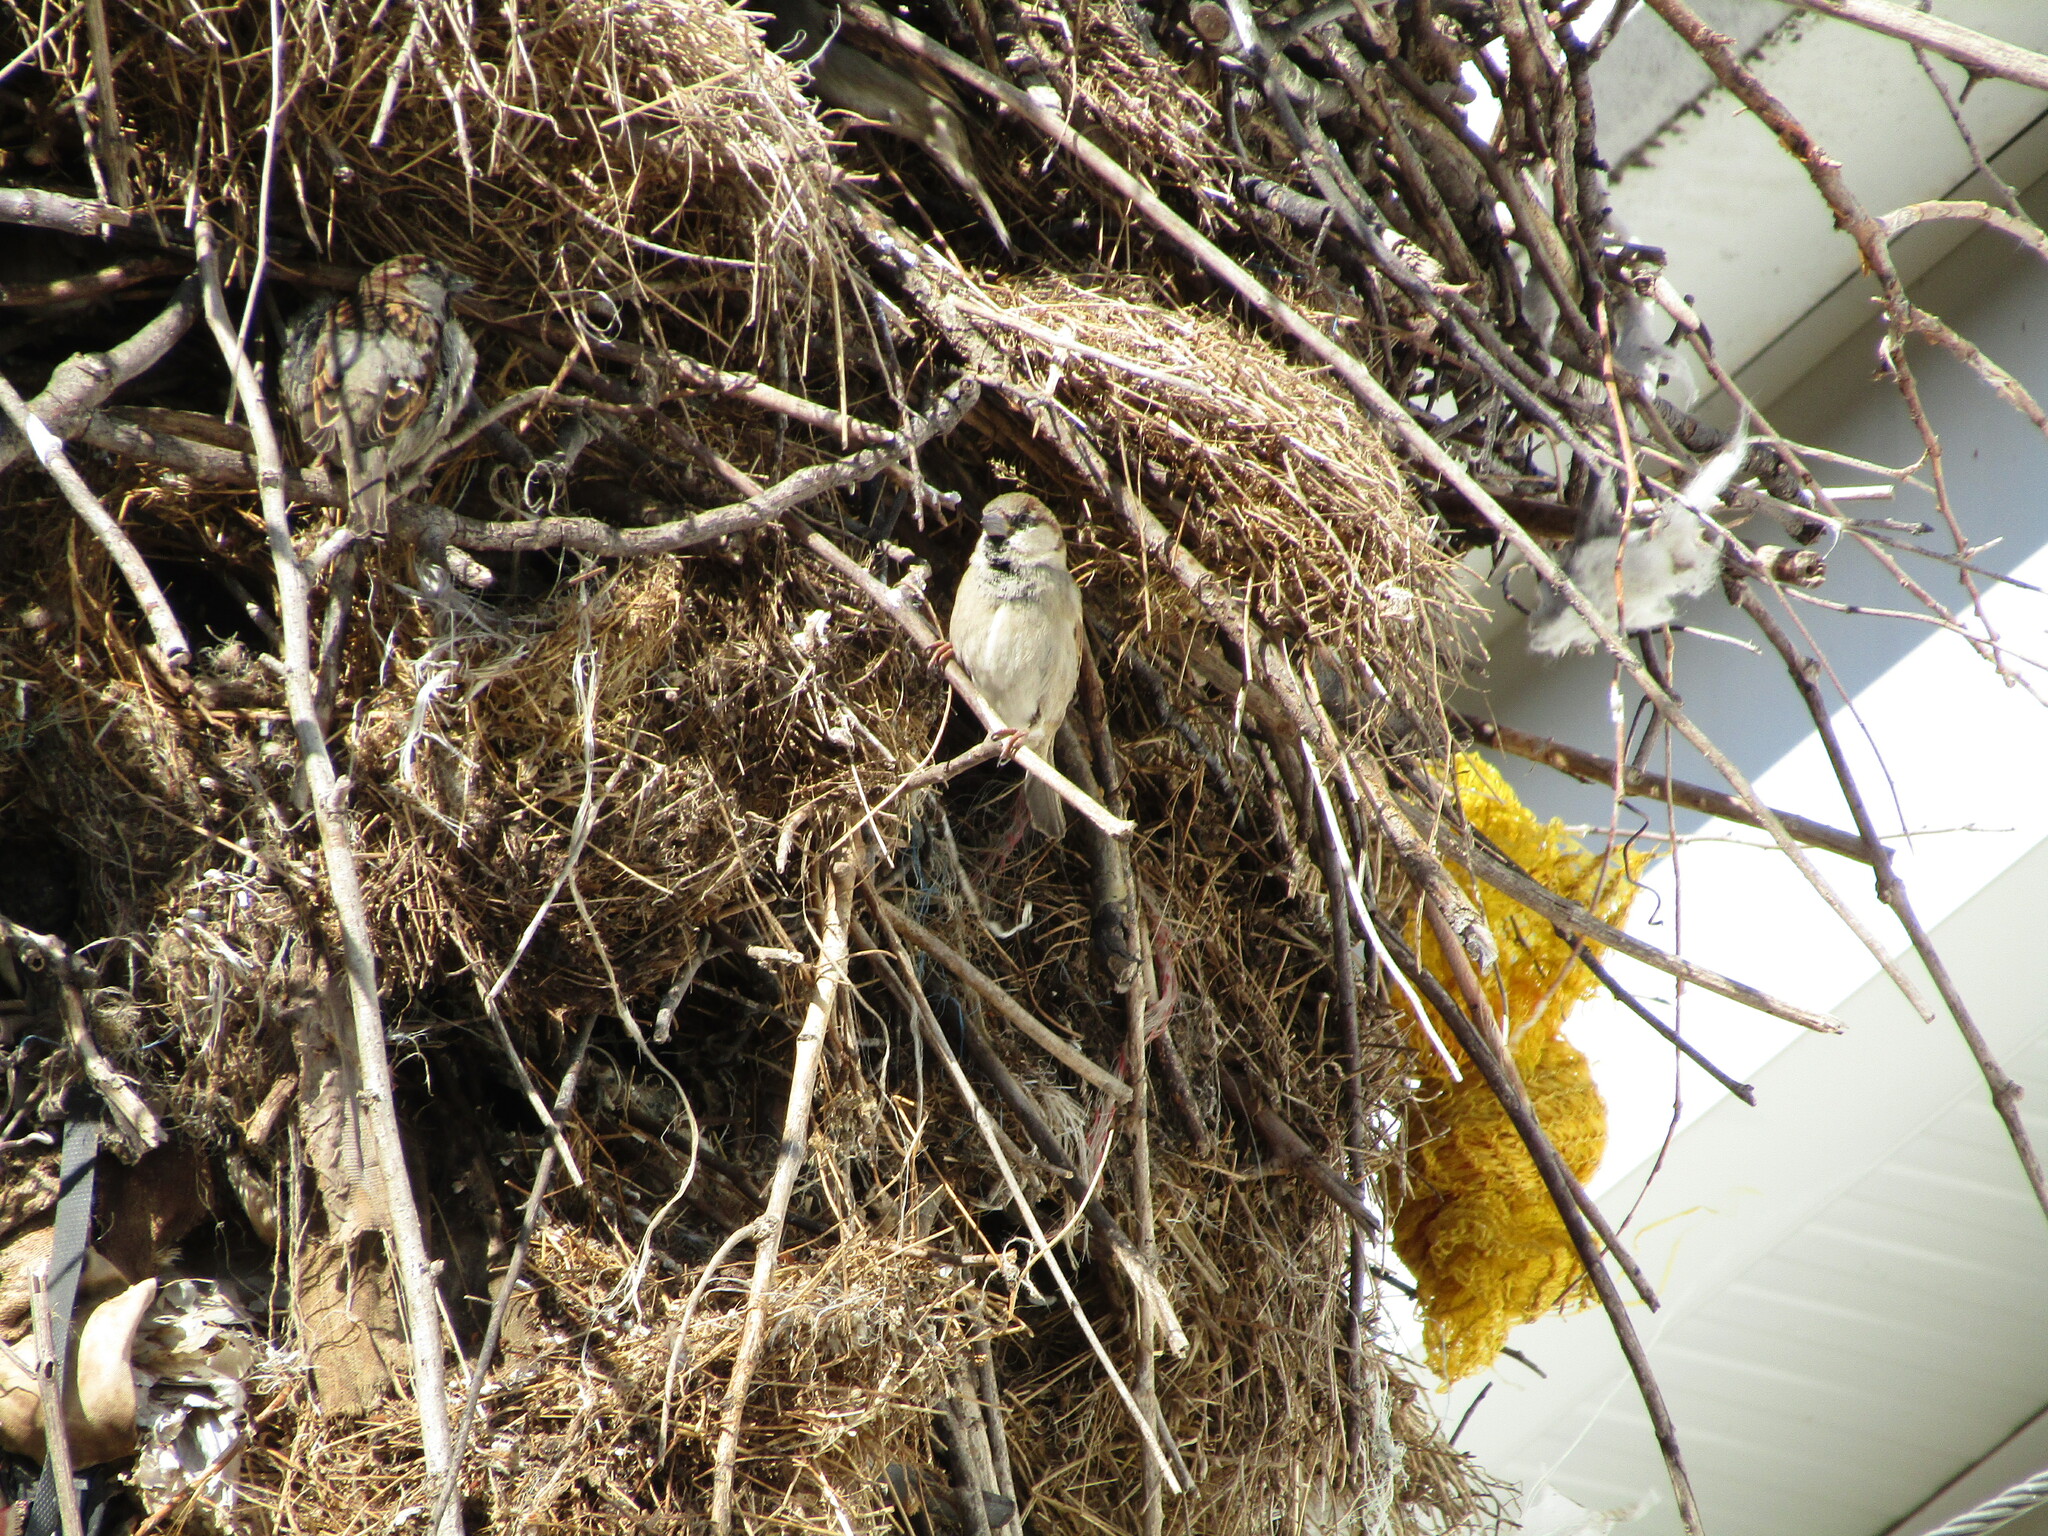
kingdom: Animalia
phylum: Chordata
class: Aves
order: Passeriformes
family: Passeridae
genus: Passer
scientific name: Passer domesticus
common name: House sparrow
